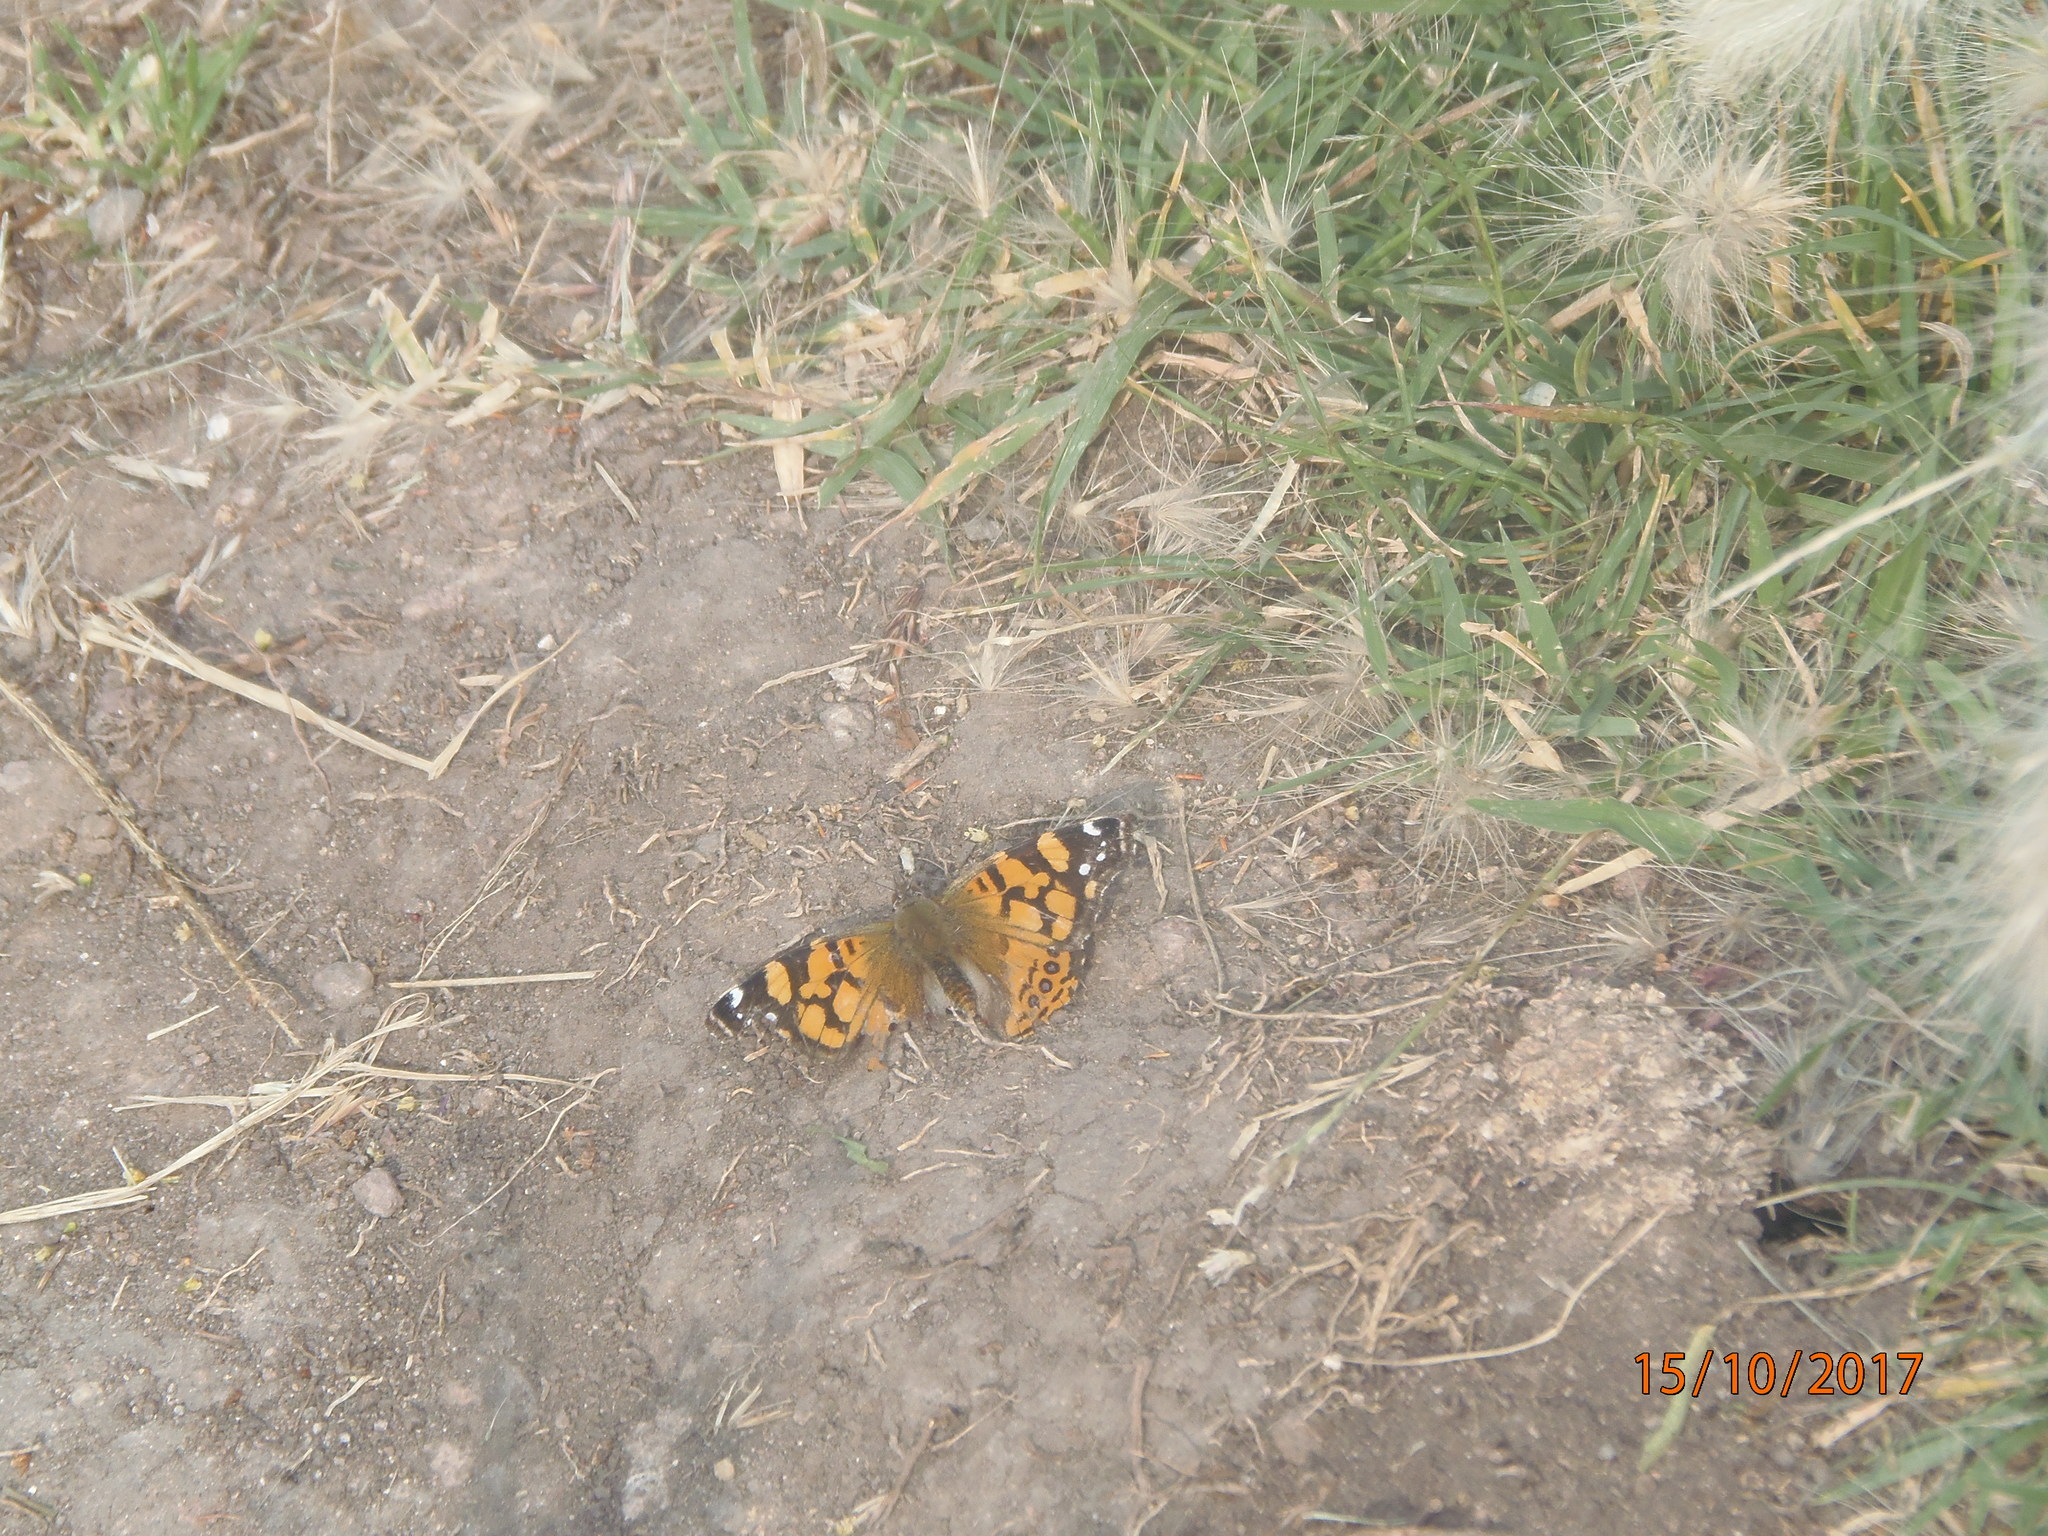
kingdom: Animalia
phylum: Arthropoda
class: Insecta
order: Lepidoptera
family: Nymphalidae
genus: Vanessa
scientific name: Vanessa annabella
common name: West coast lady
